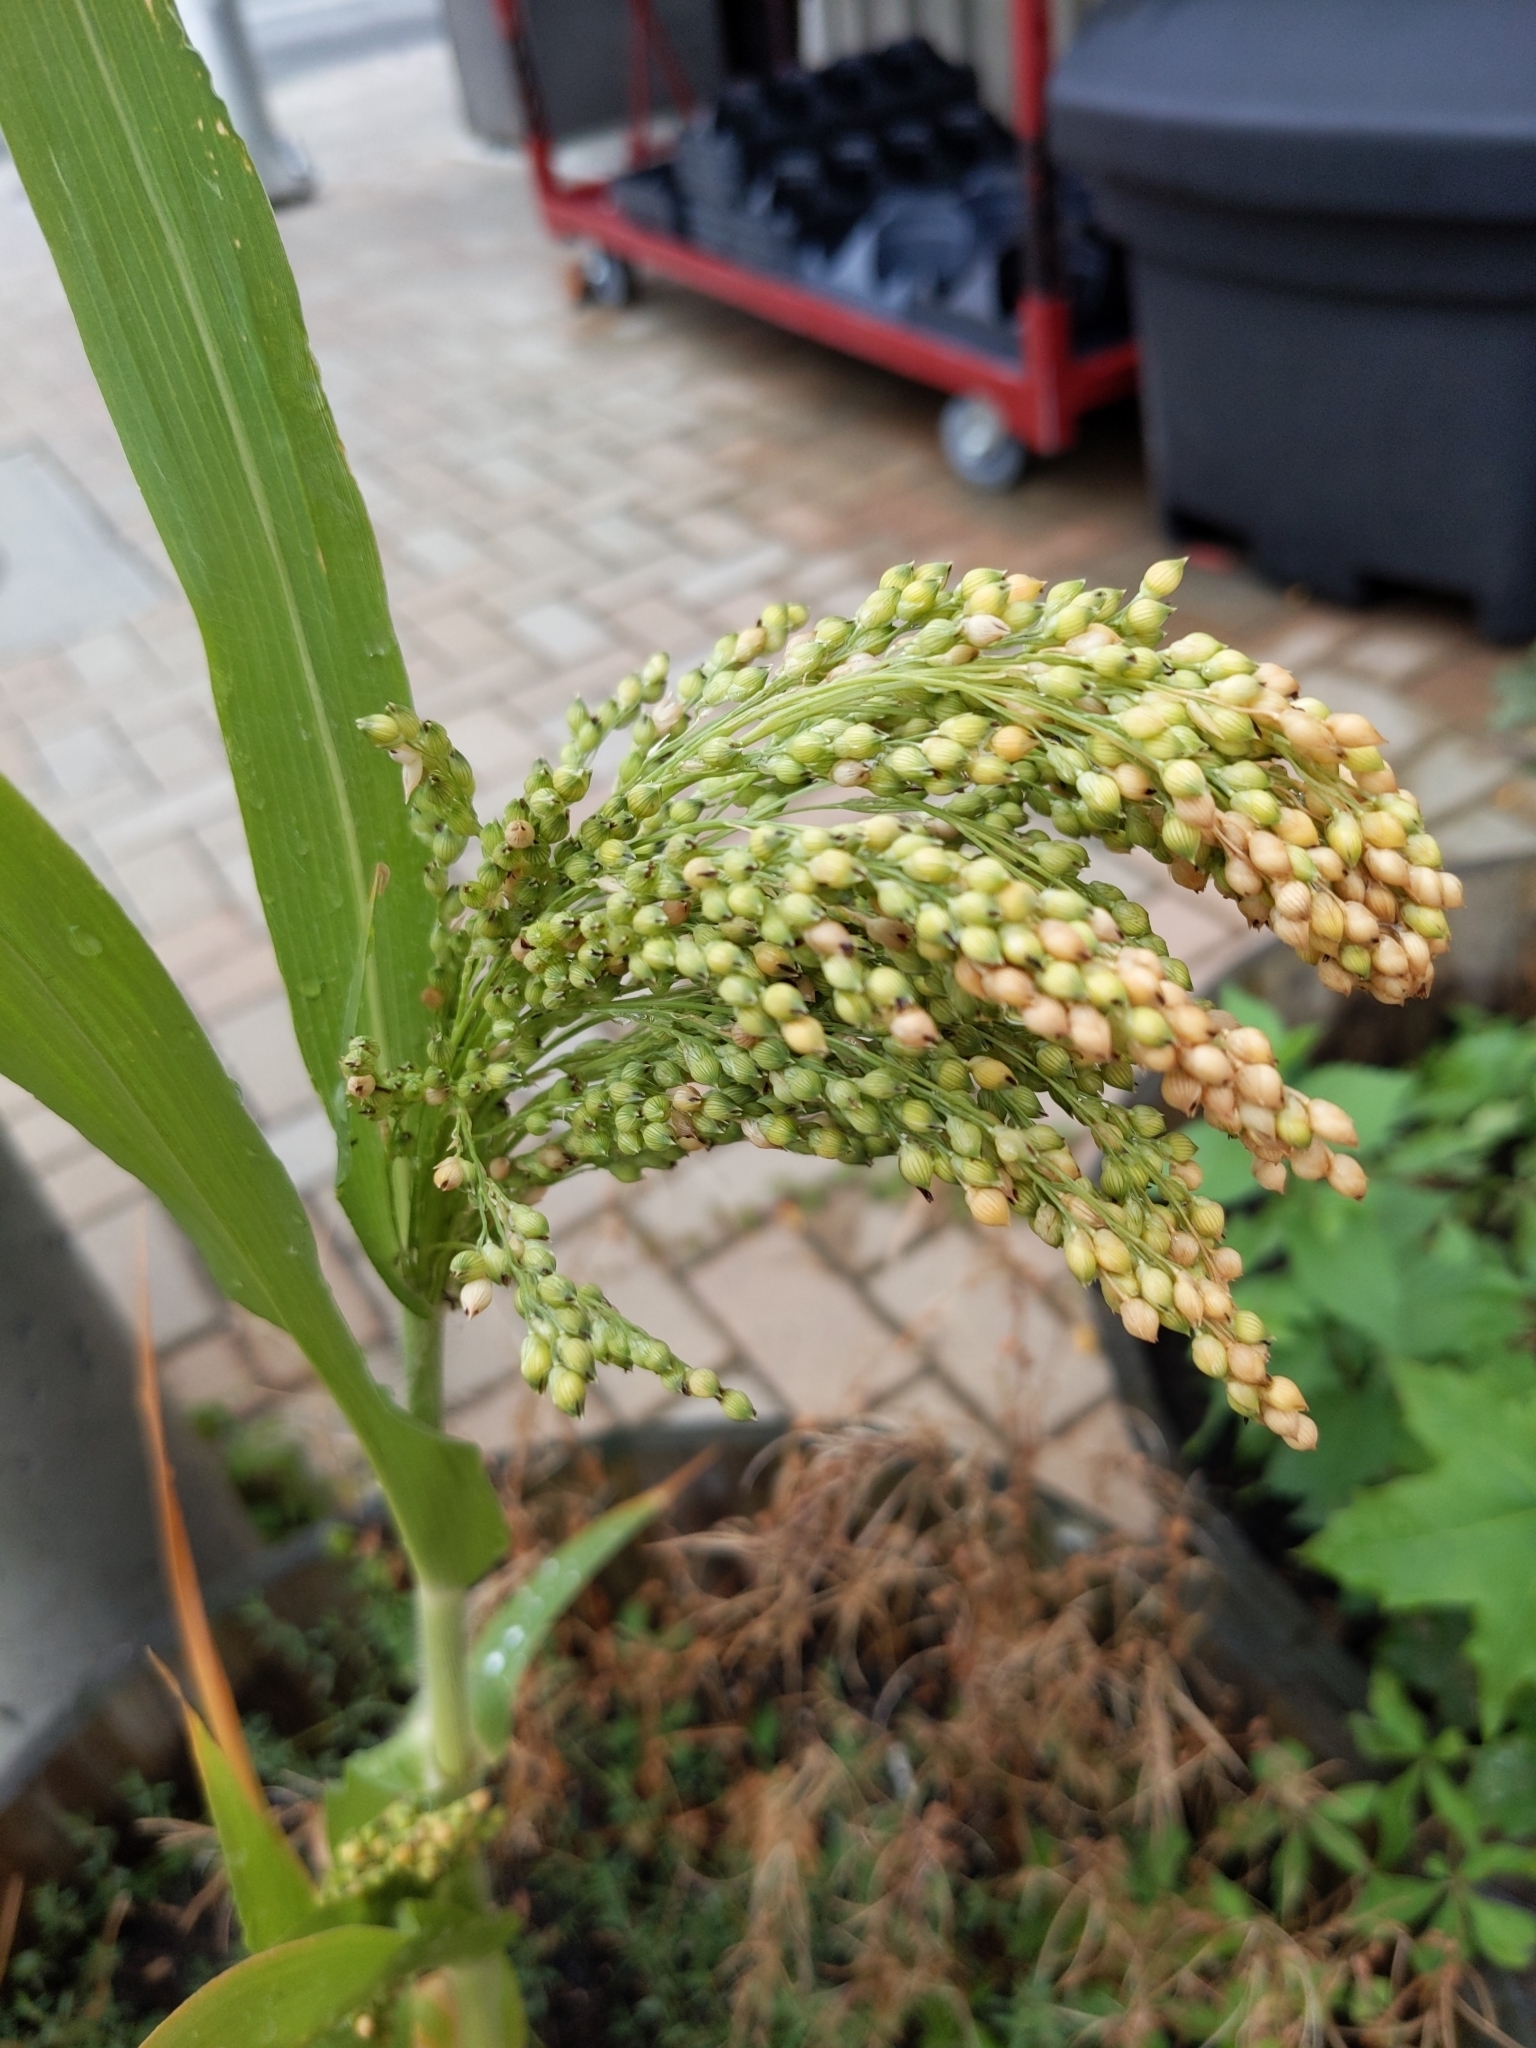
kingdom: Plantae
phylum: Tracheophyta
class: Liliopsida
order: Poales
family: Poaceae
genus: Panicum
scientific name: Panicum miliaceum
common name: Common millet
